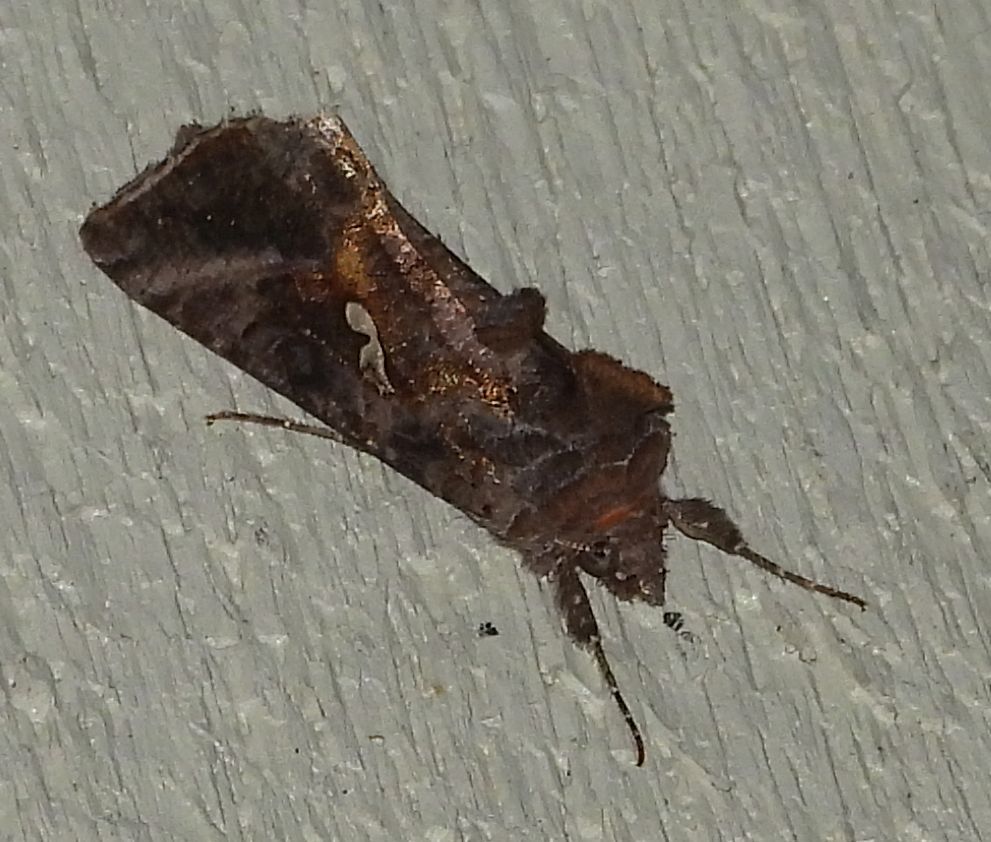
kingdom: Animalia
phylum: Arthropoda
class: Insecta
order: Lepidoptera
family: Noctuidae
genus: Autographa
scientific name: Autographa precationis
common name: Common looper moth
